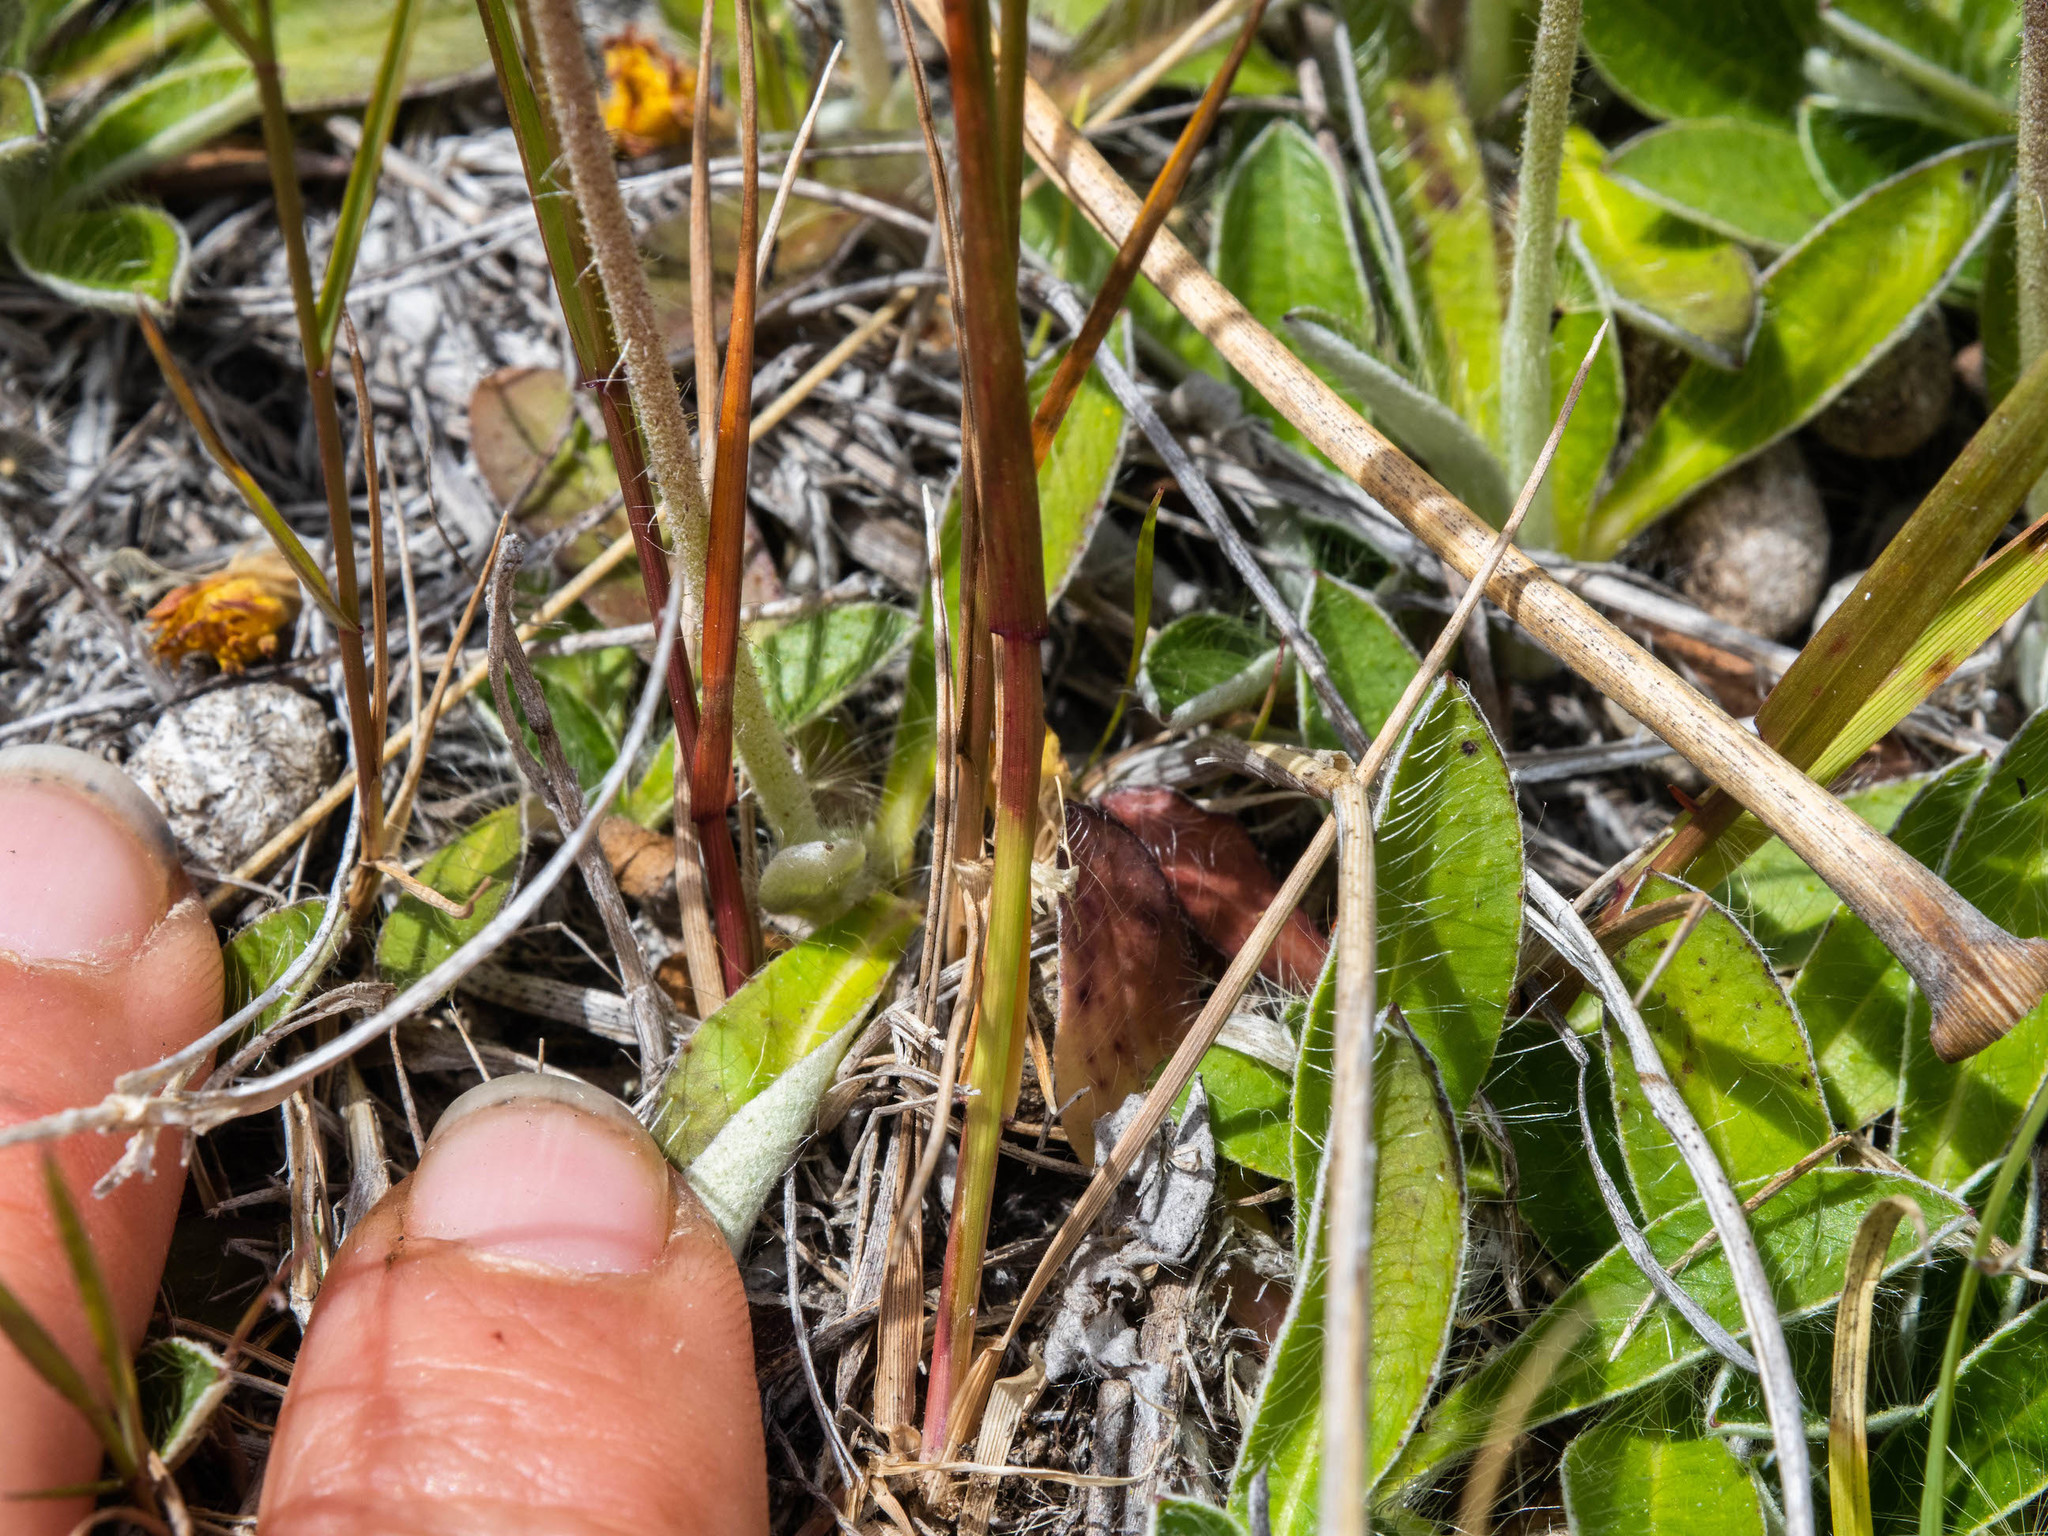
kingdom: Plantae
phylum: Tracheophyta
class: Liliopsida
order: Poales
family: Poaceae
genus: Agrostis
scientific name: Agrostis capillaris
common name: Colonial bentgrass
